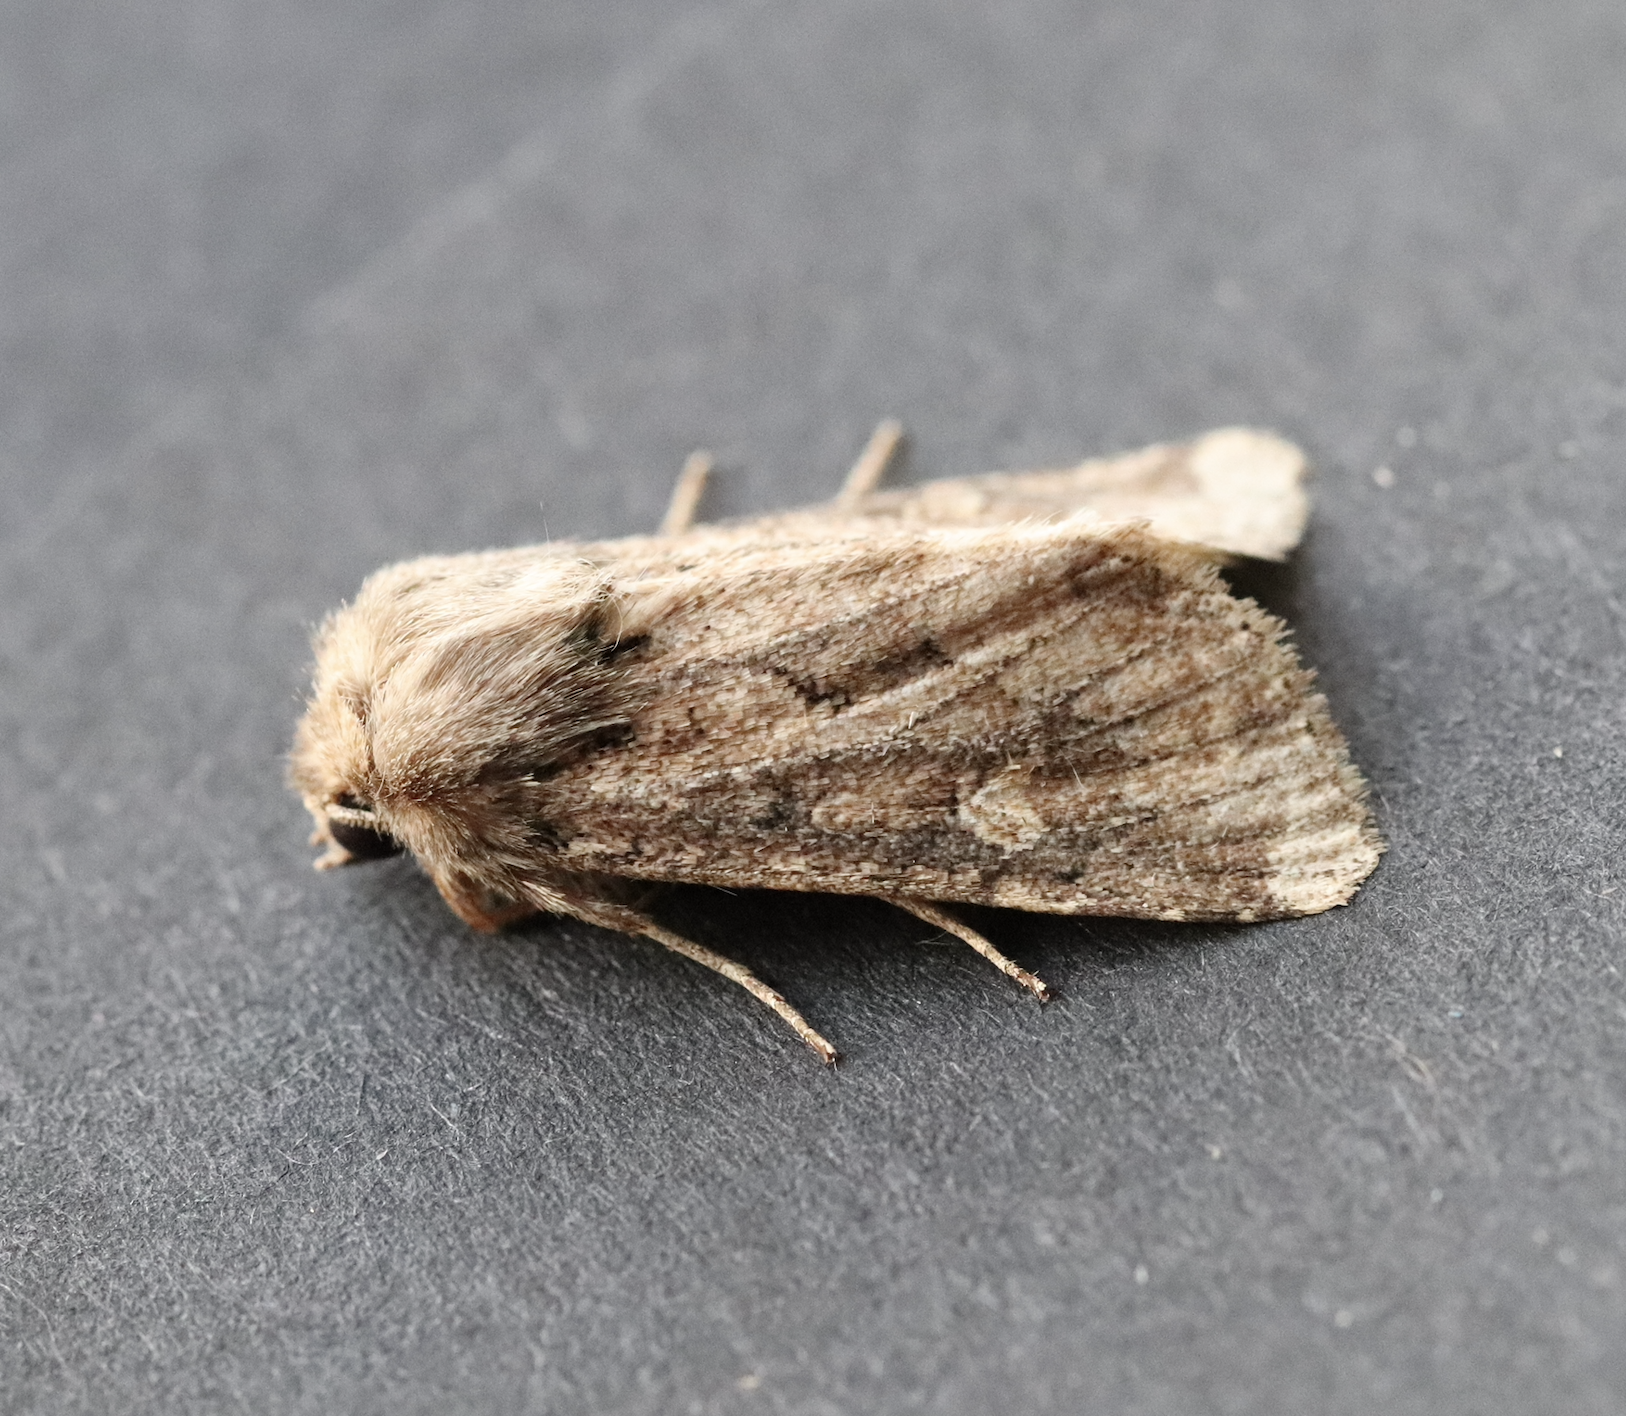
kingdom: Animalia
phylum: Arthropoda
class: Insecta
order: Lepidoptera
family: Noctuidae
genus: Luperina
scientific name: Luperina testacea
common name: Flounced rustic
